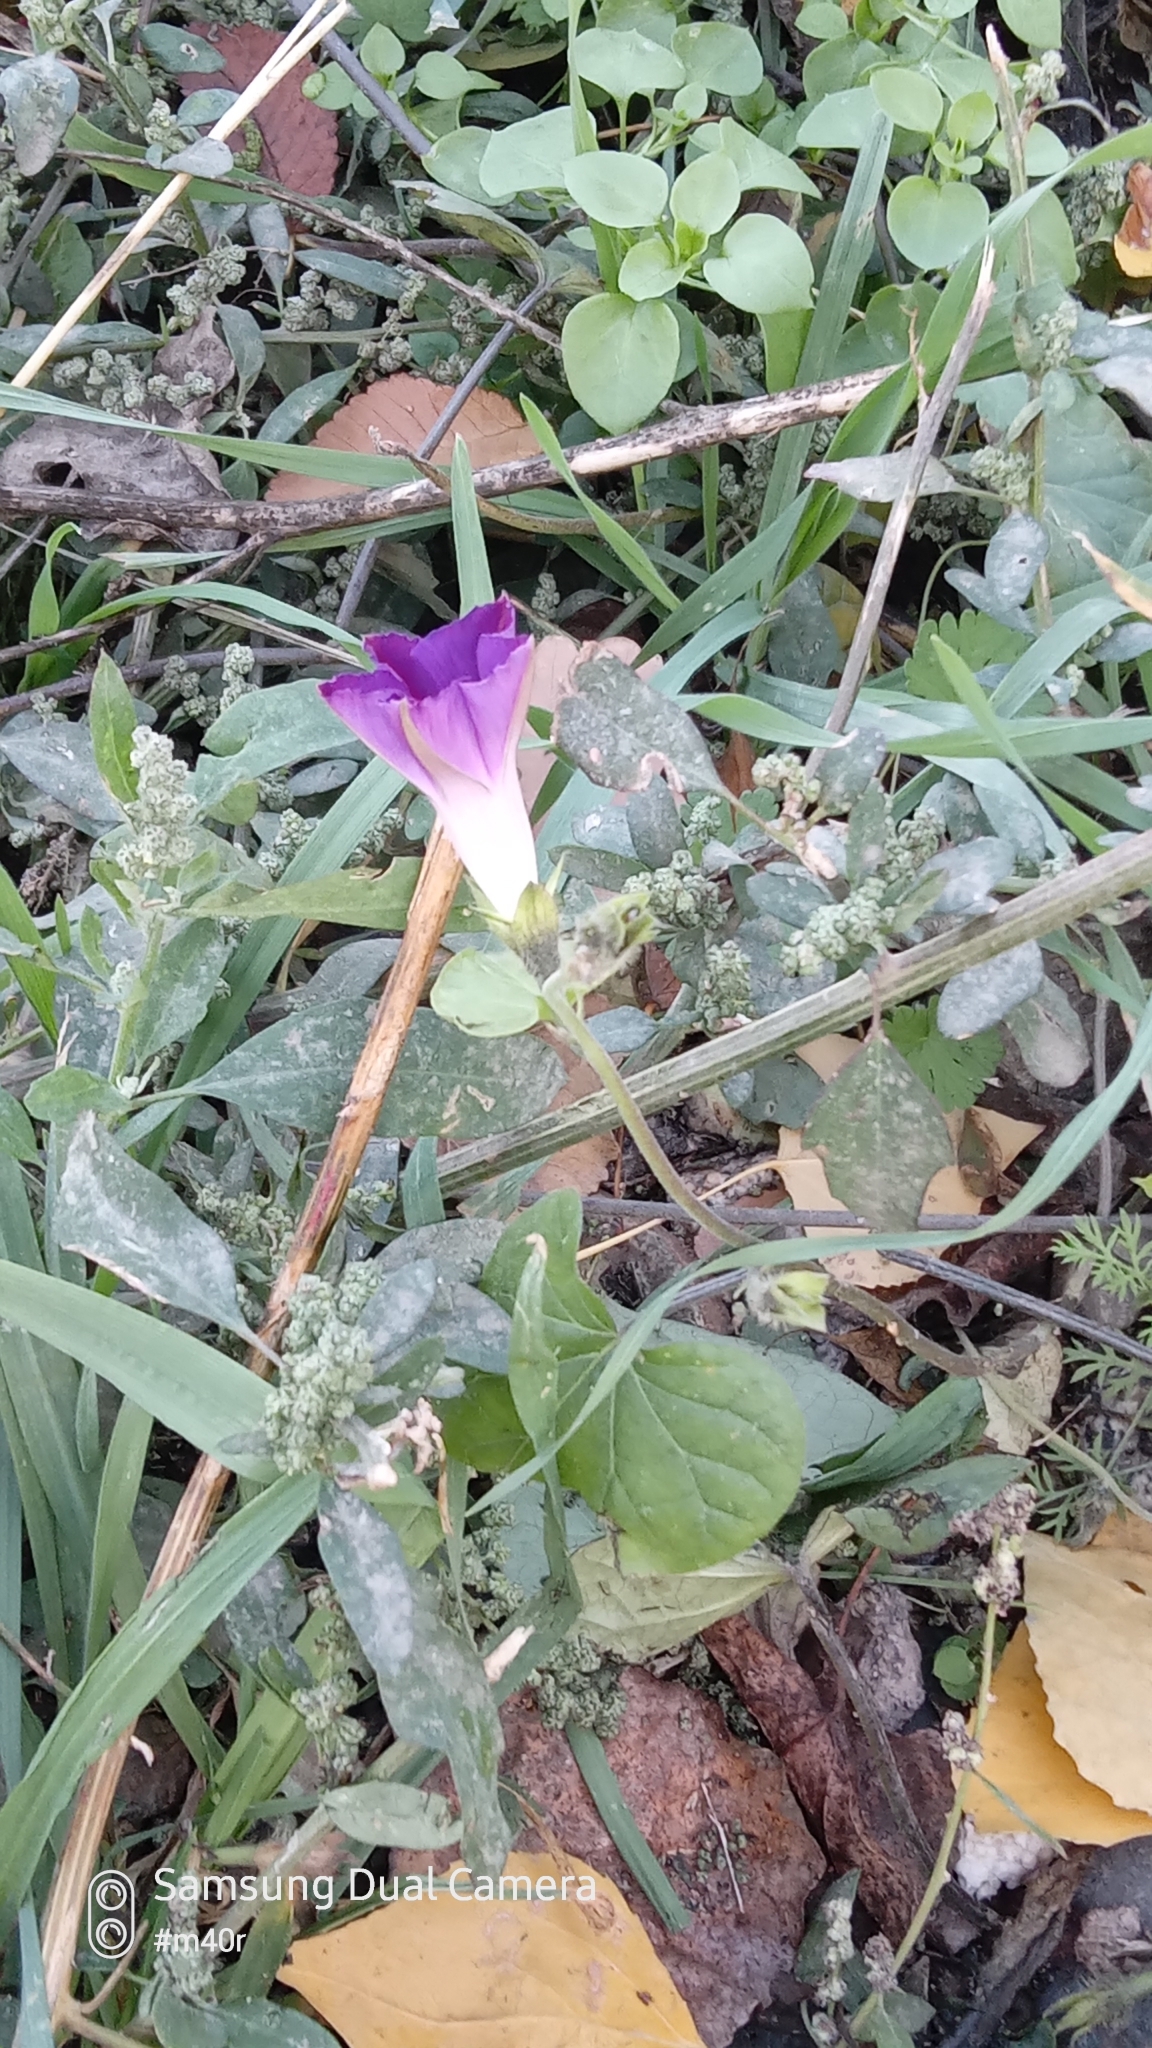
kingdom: Plantae
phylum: Tracheophyta
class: Magnoliopsida
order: Solanales
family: Convolvulaceae
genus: Ipomoea
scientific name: Ipomoea purpurea
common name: Common morning-glory
